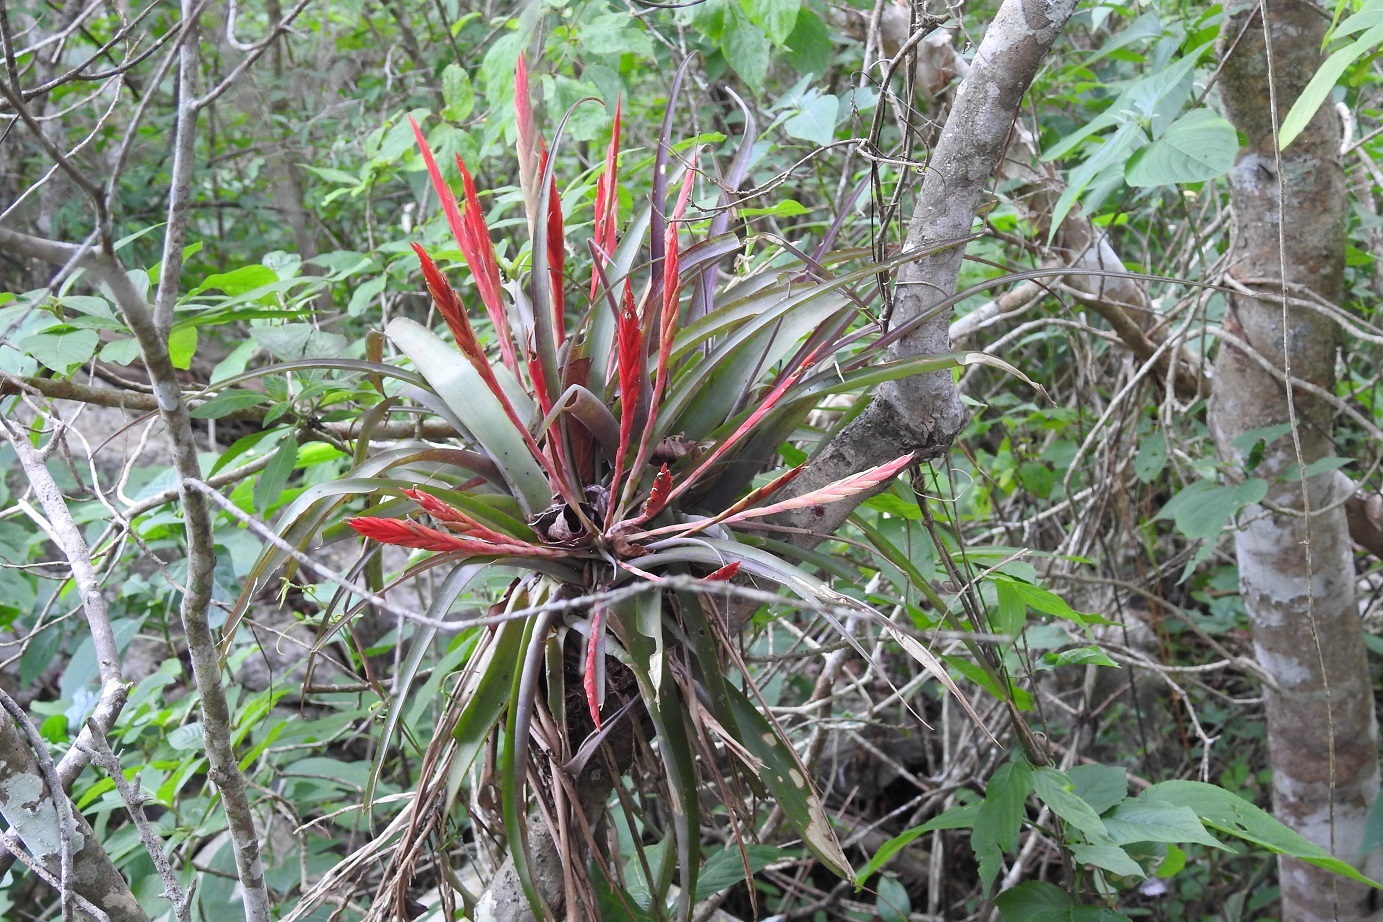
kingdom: Plantae
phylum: Tracheophyta
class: Liliopsida
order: Poales
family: Bromeliaceae
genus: Tillandsia
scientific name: Tillandsia flabellata
